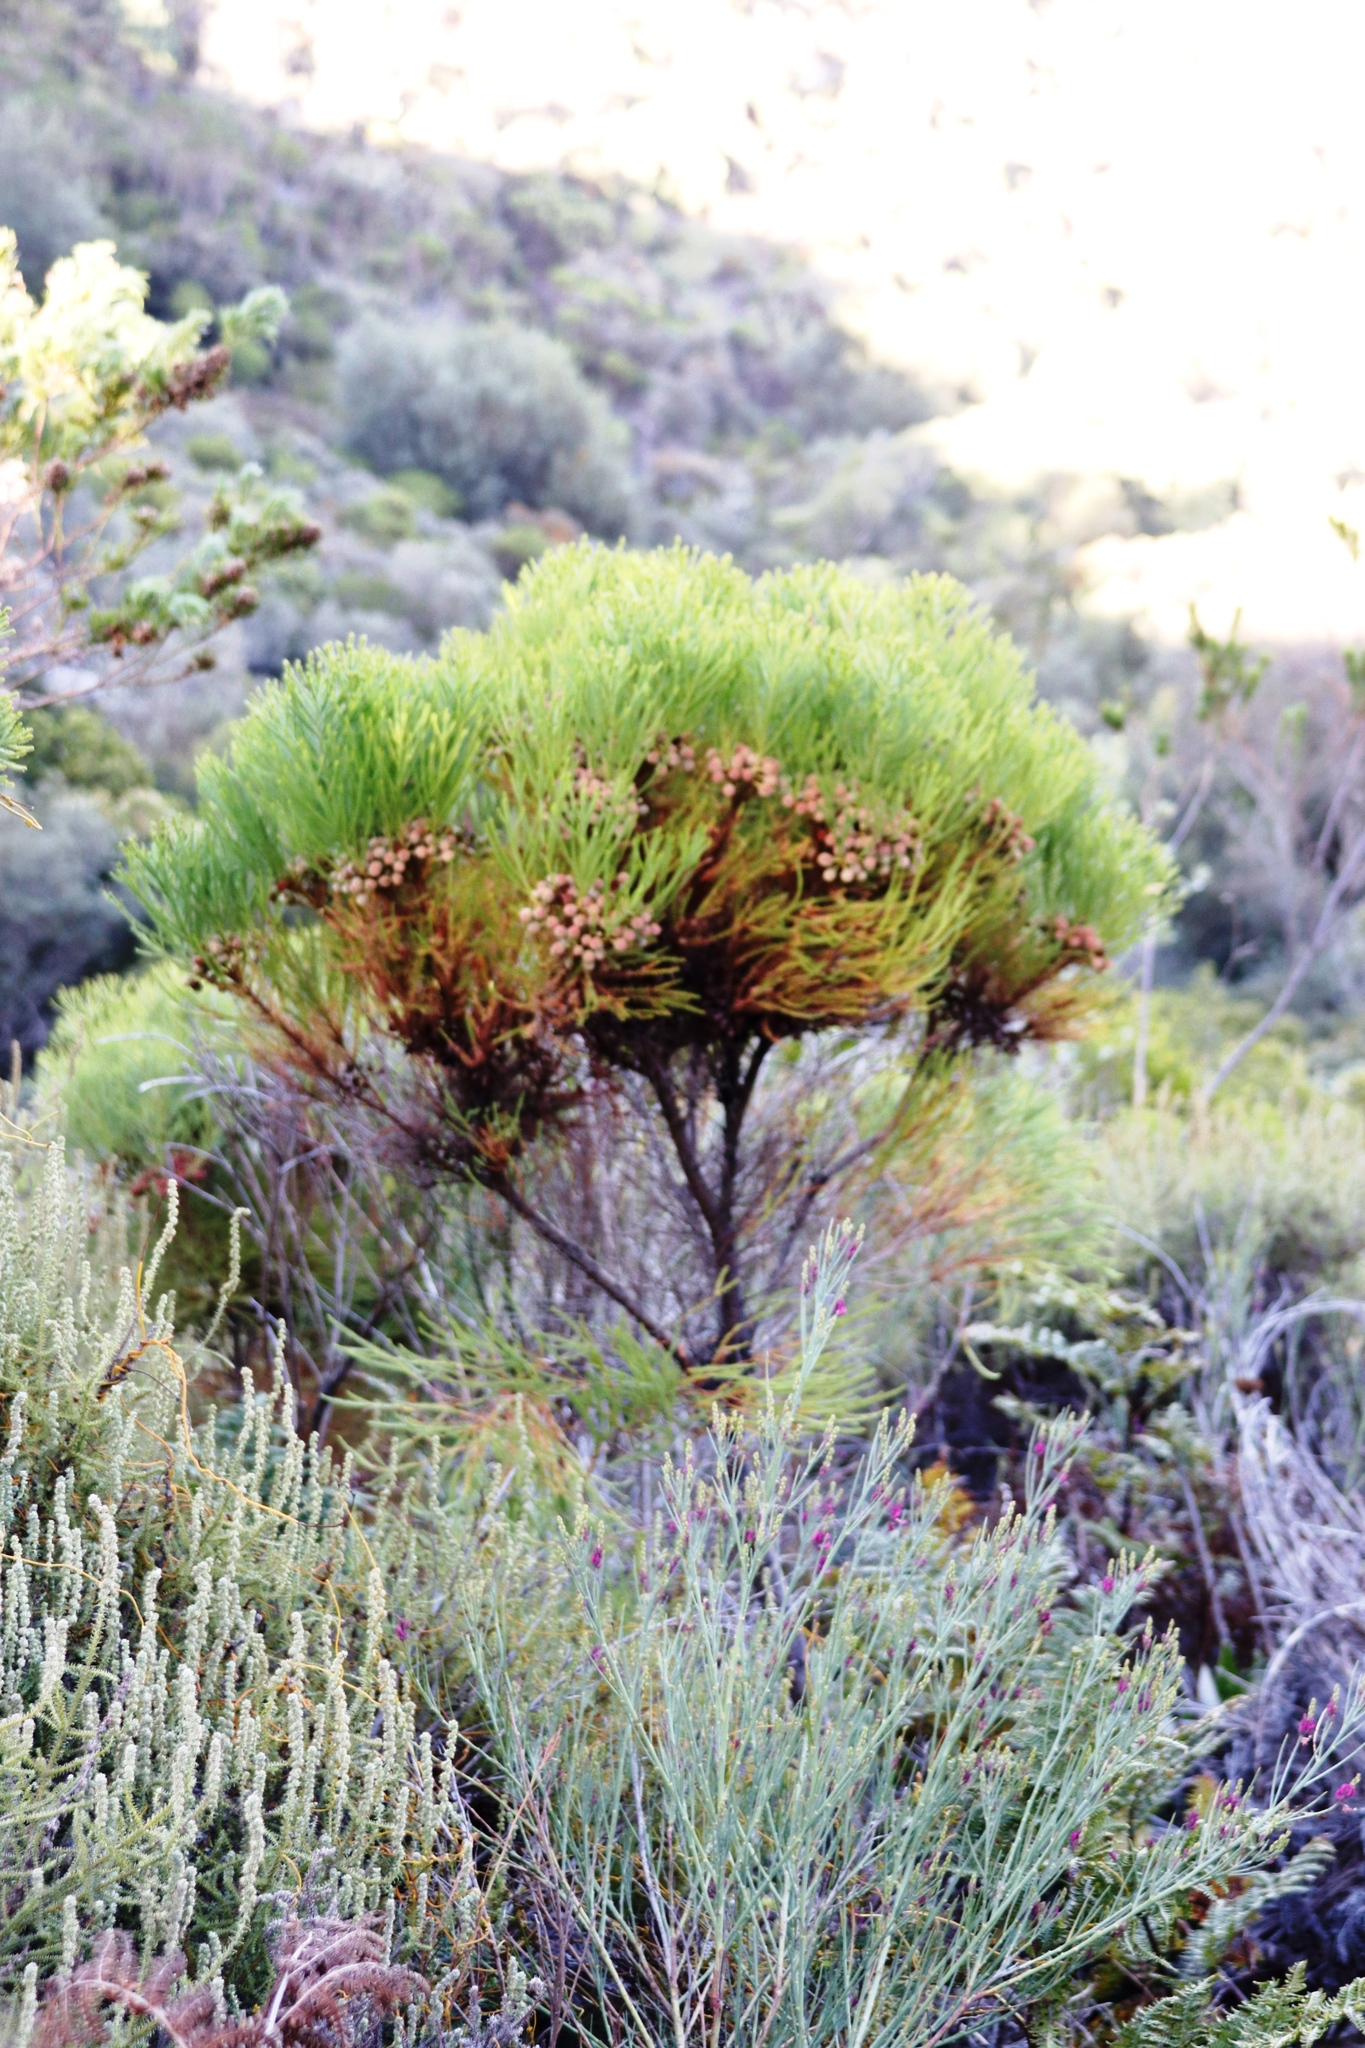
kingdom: Plantae
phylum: Tracheophyta
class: Magnoliopsida
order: Bruniales
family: Bruniaceae
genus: Berzelia
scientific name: Berzelia lanuginosa
